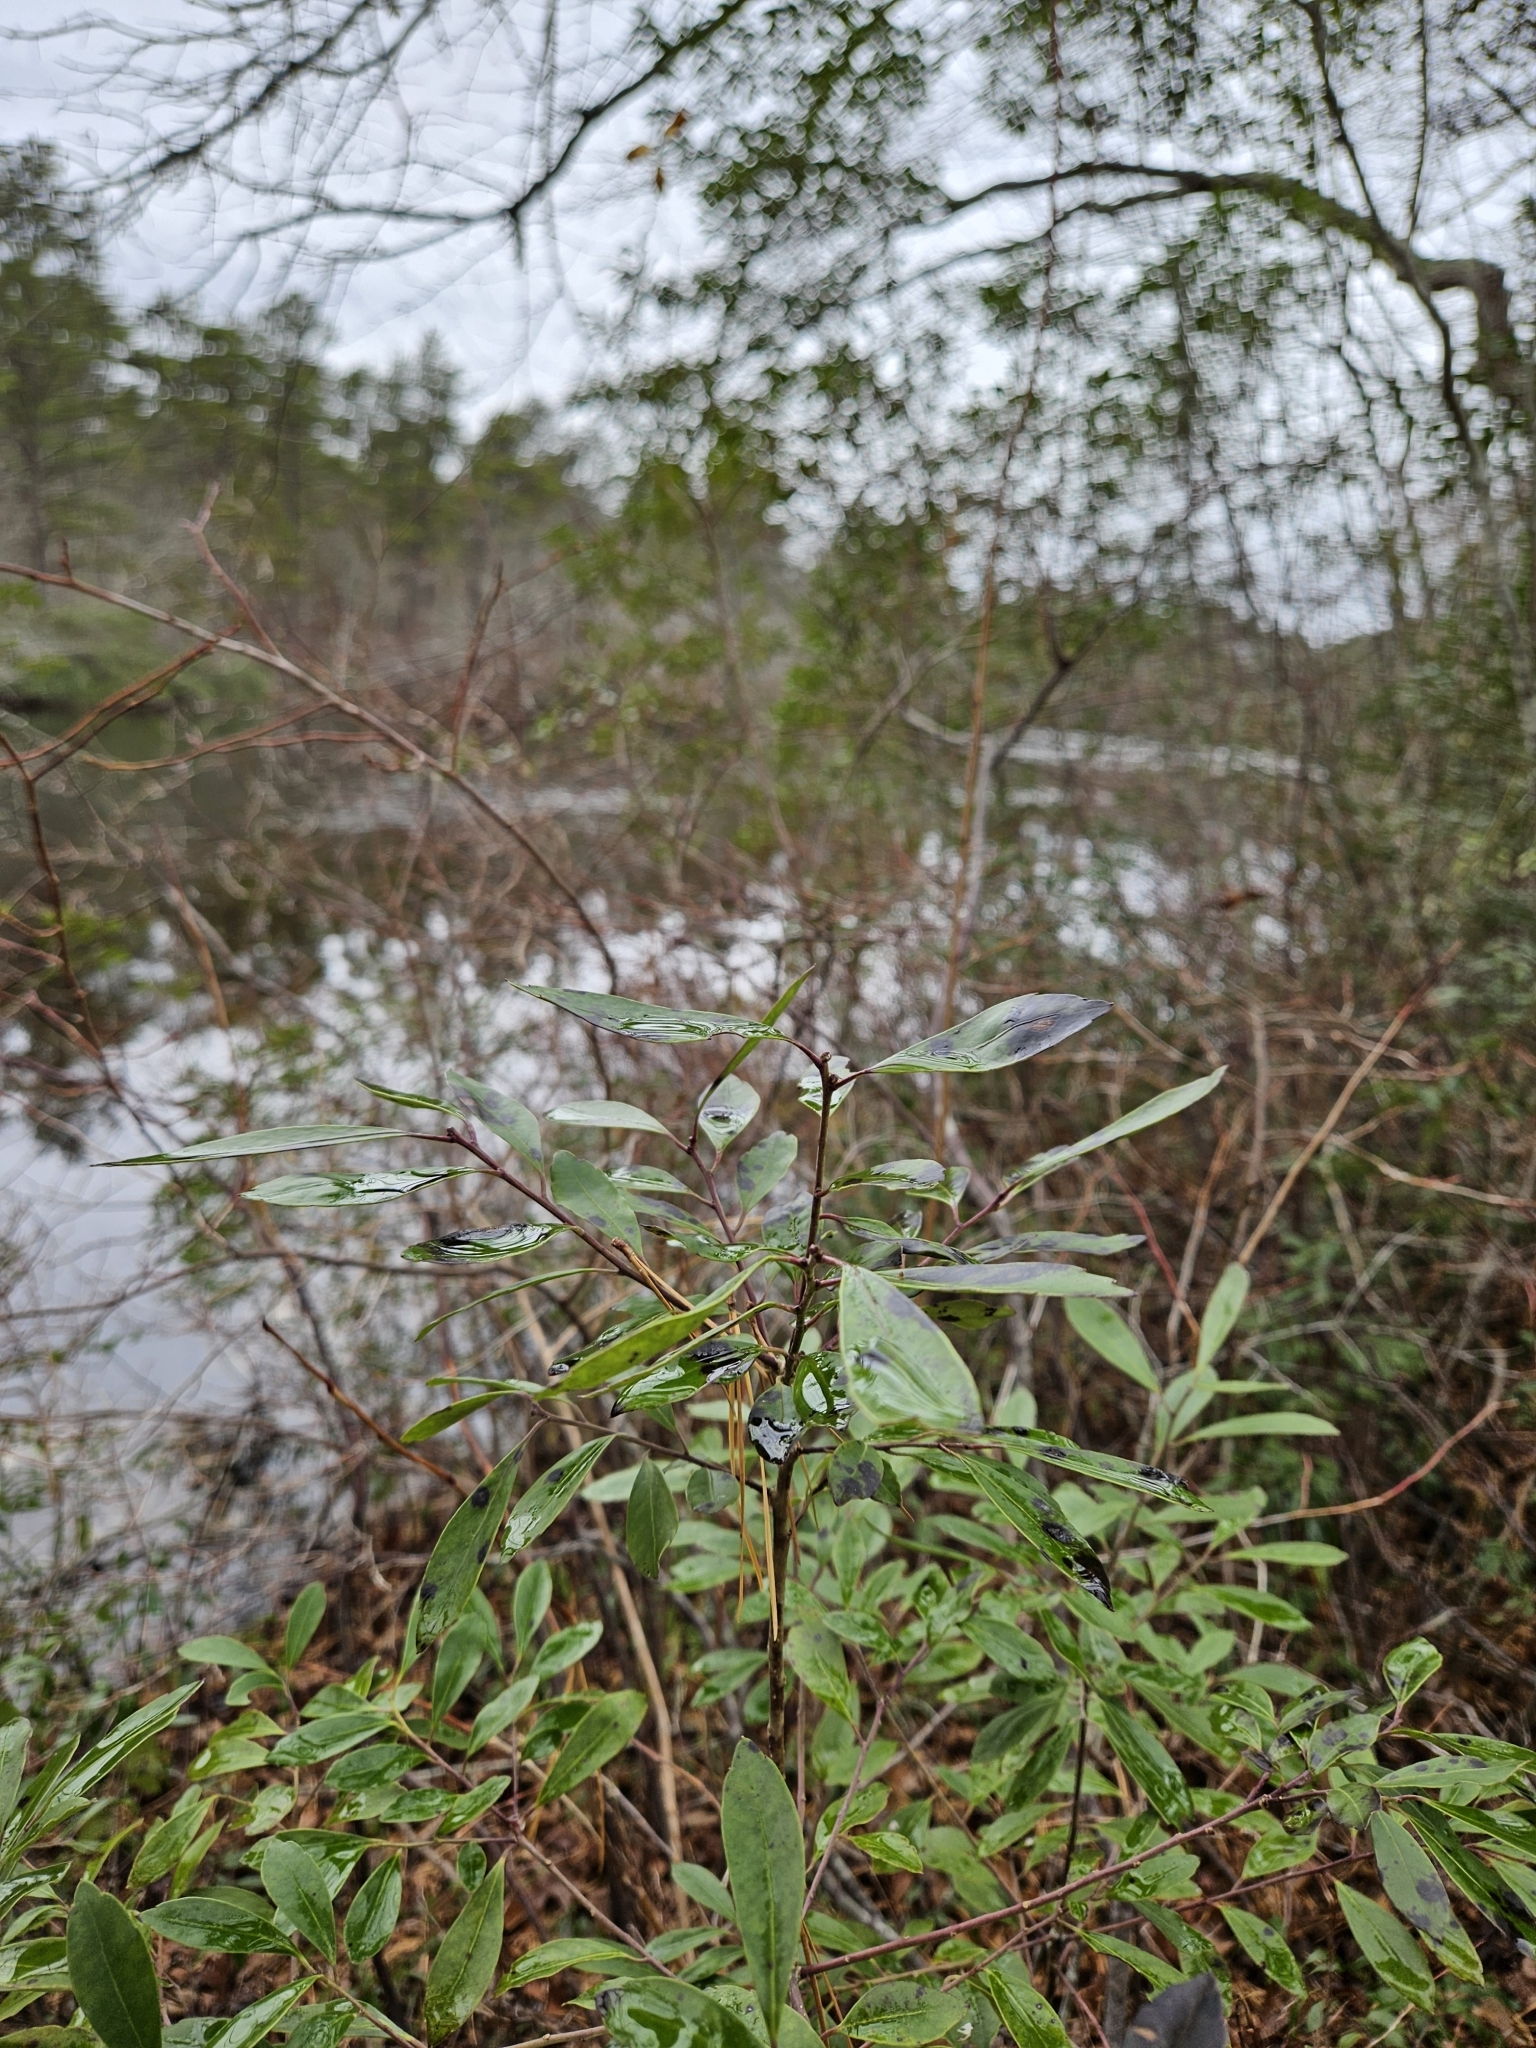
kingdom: Plantae
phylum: Tracheophyta
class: Magnoliopsida
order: Aquifoliales
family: Aquifoliaceae
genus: Ilex
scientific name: Ilex glabra
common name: Bitter gallberry
